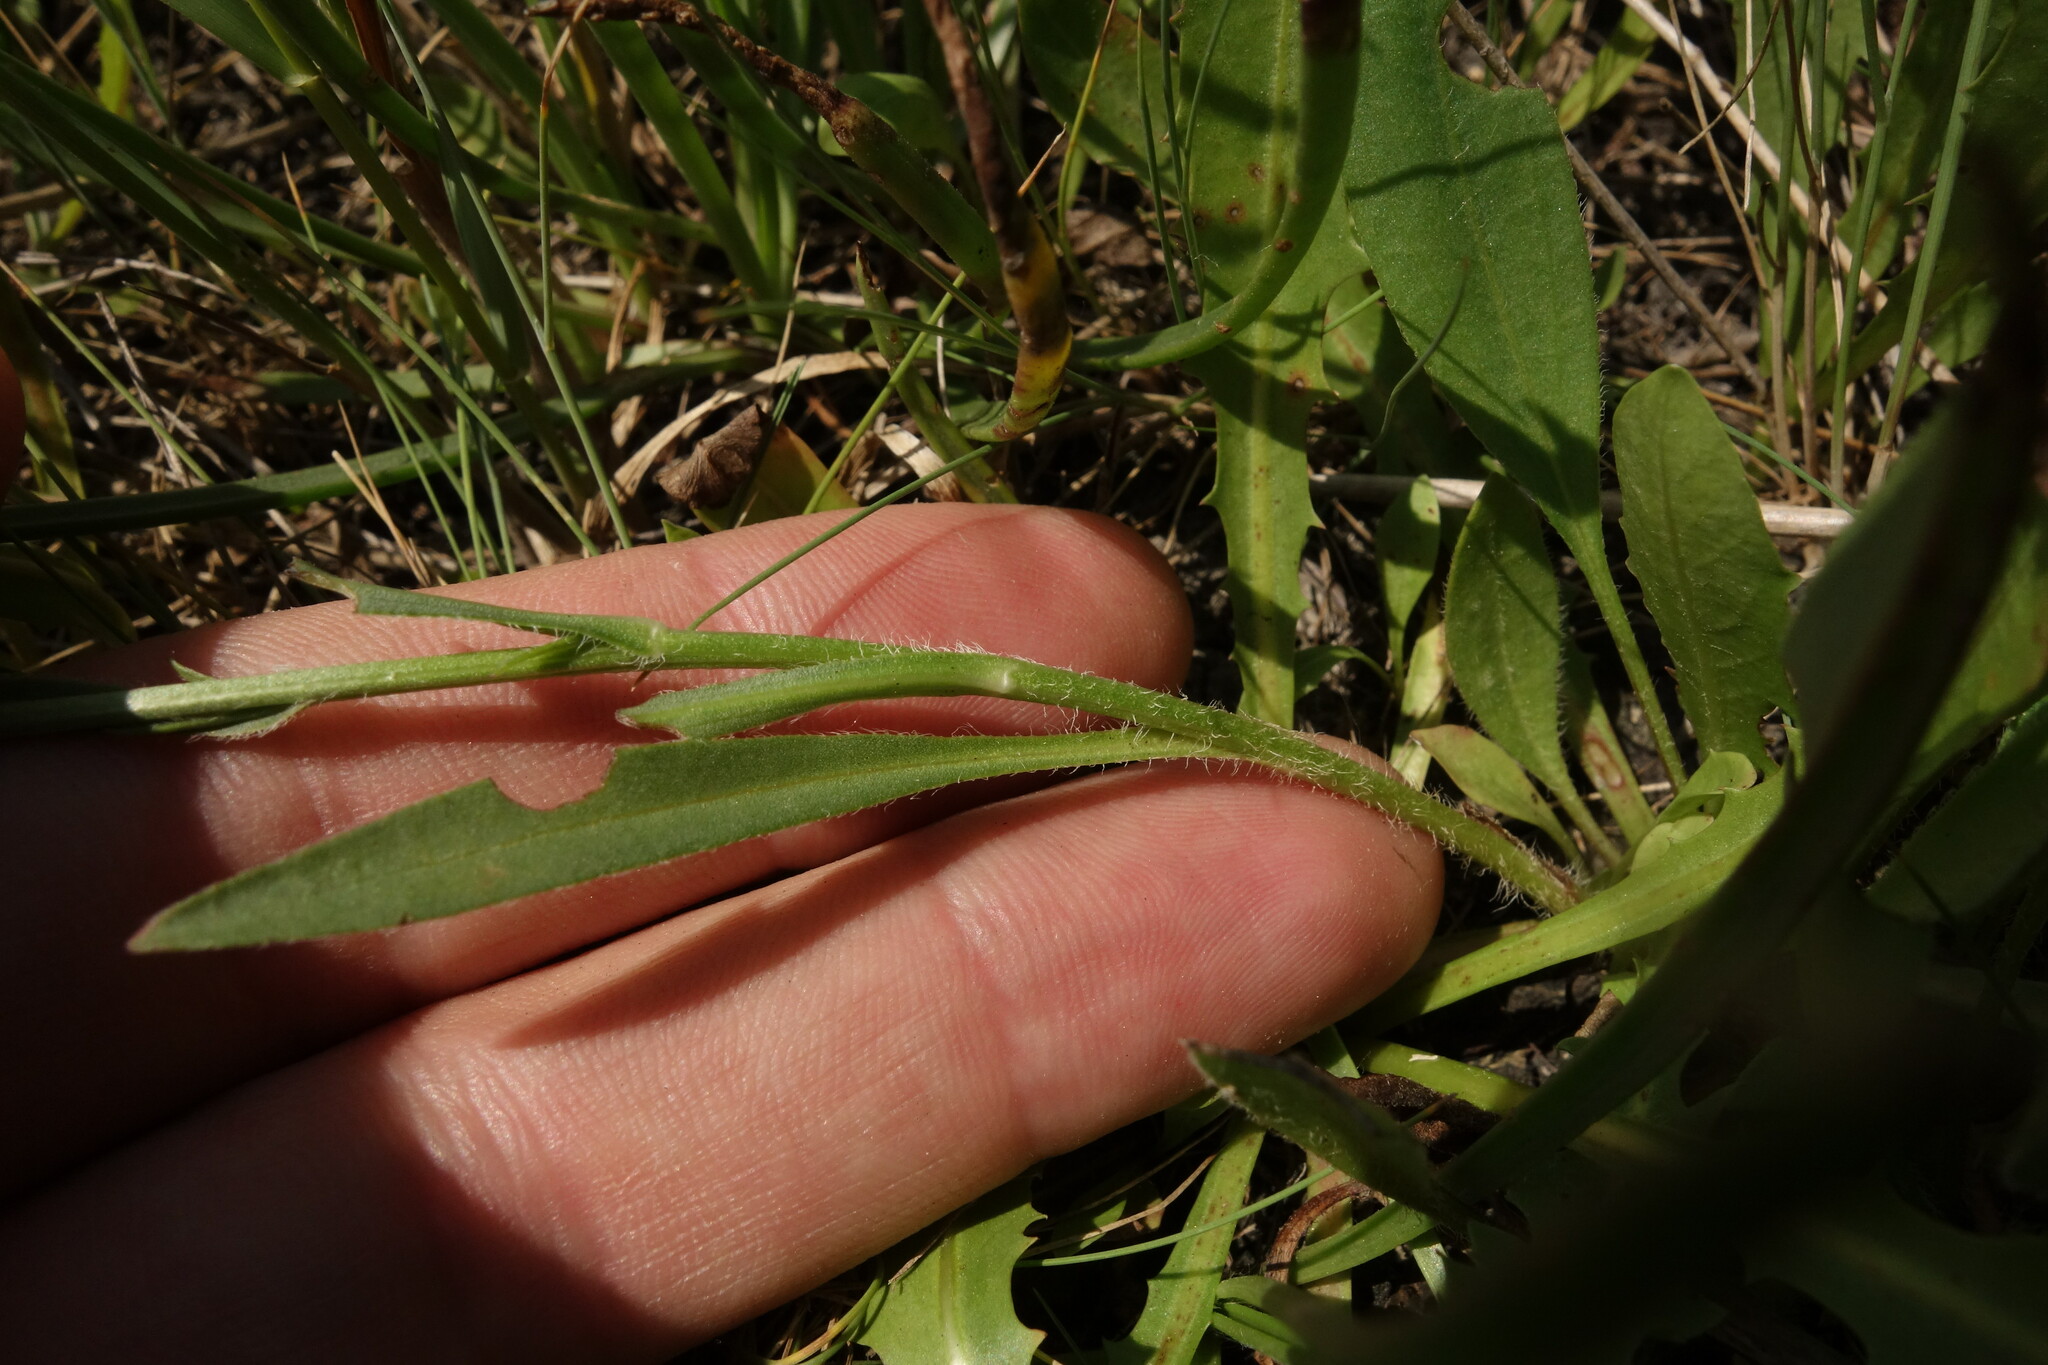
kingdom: Plantae
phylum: Tracheophyta
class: Magnoliopsida
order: Asterales
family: Asteraceae
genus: Tripolium
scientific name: Tripolium pannonicum
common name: Sea aster
